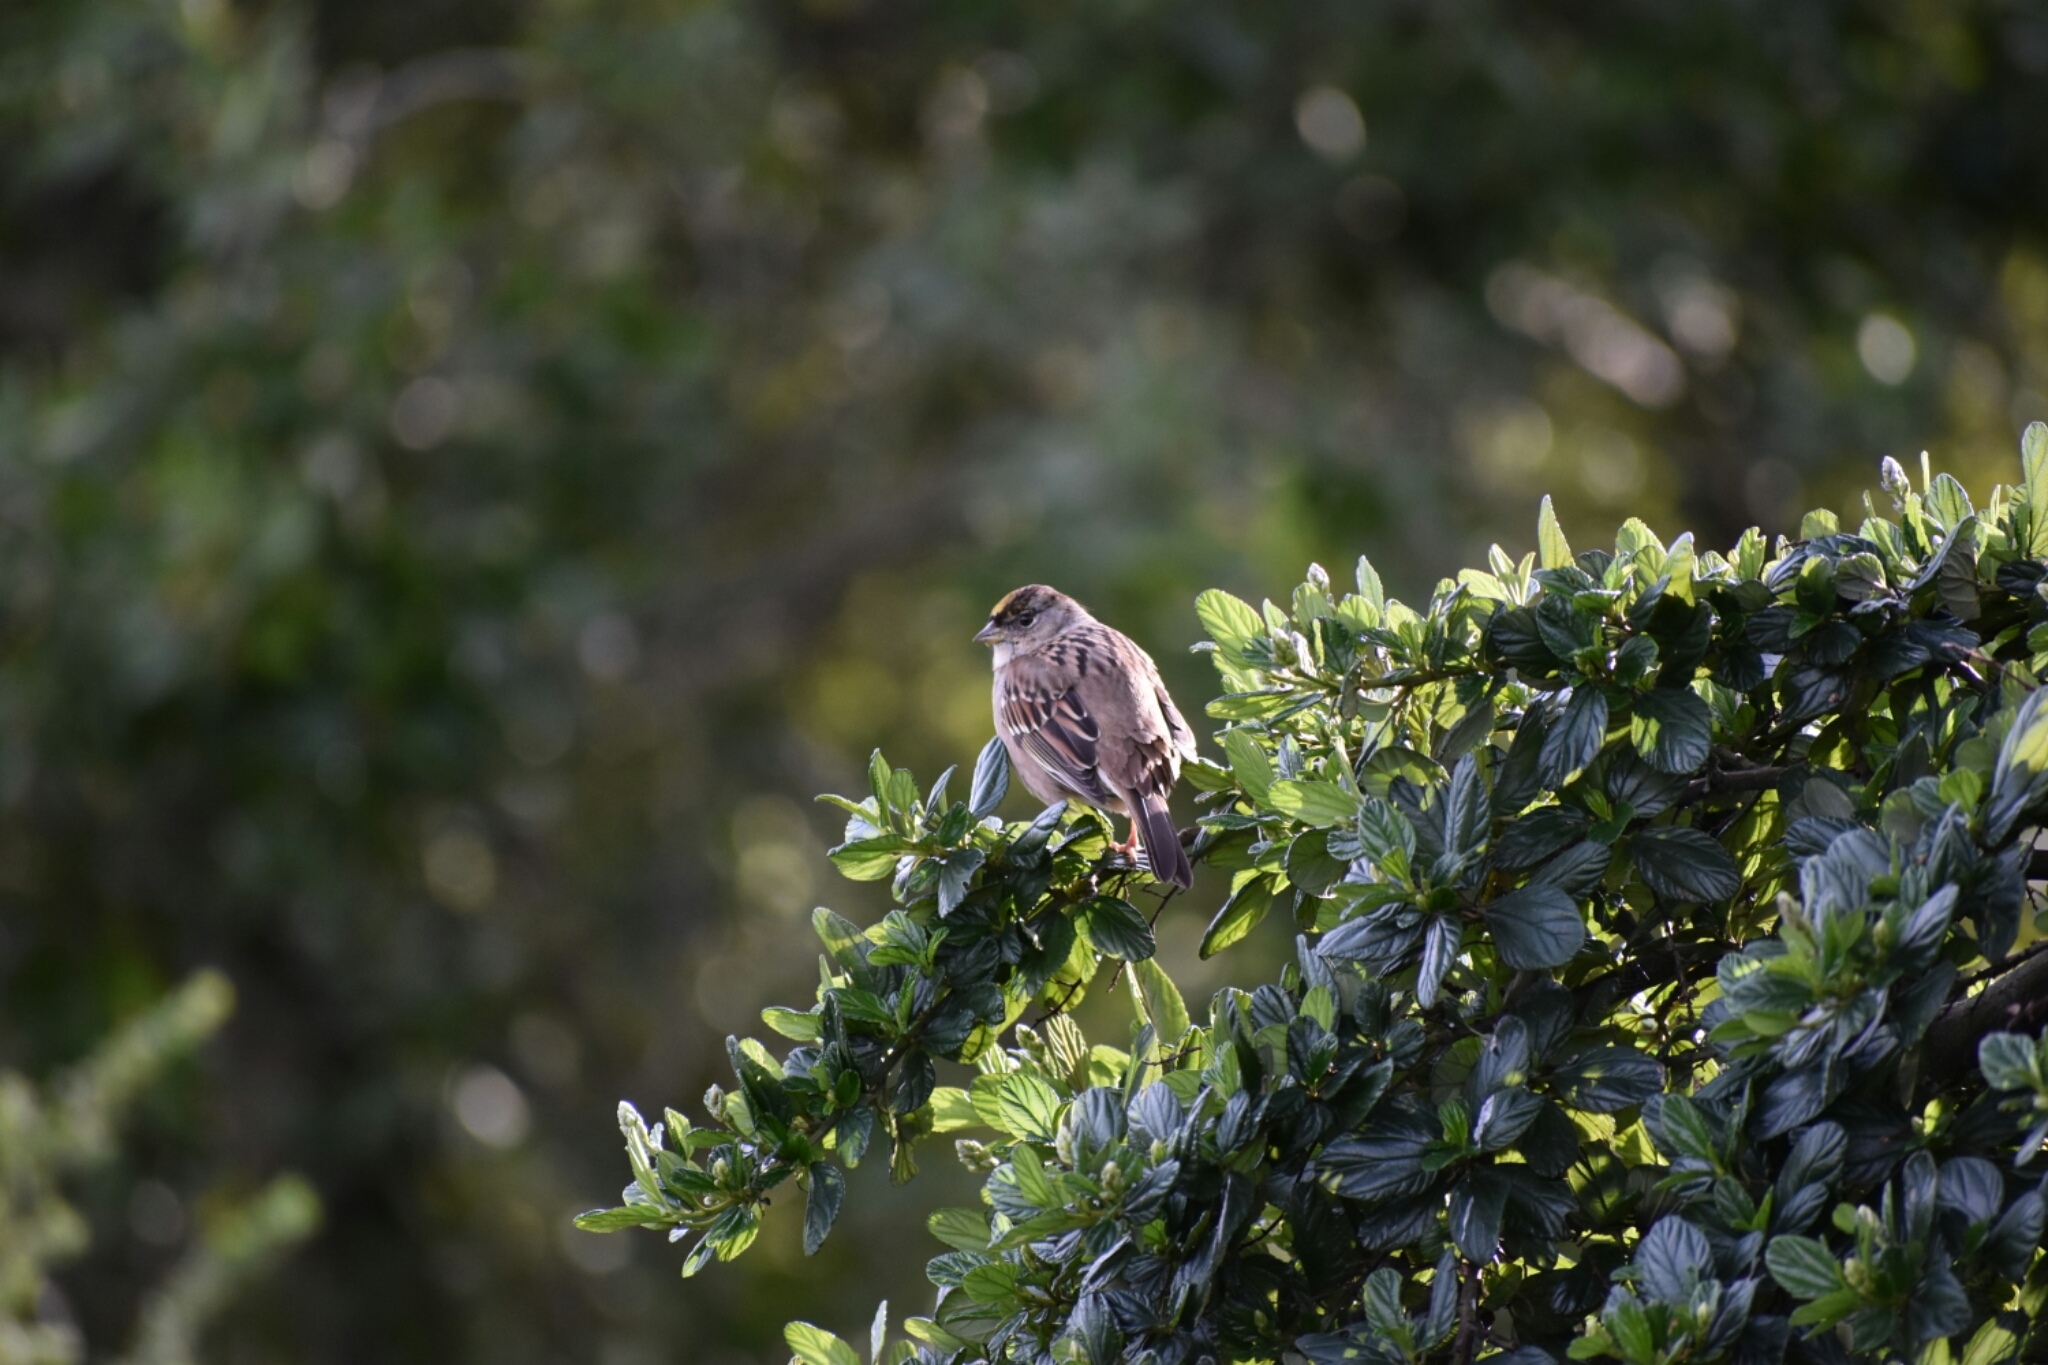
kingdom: Animalia
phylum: Chordata
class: Aves
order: Passeriformes
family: Passerellidae
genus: Zonotrichia
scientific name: Zonotrichia atricapilla
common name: Golden-crowned sparrow
